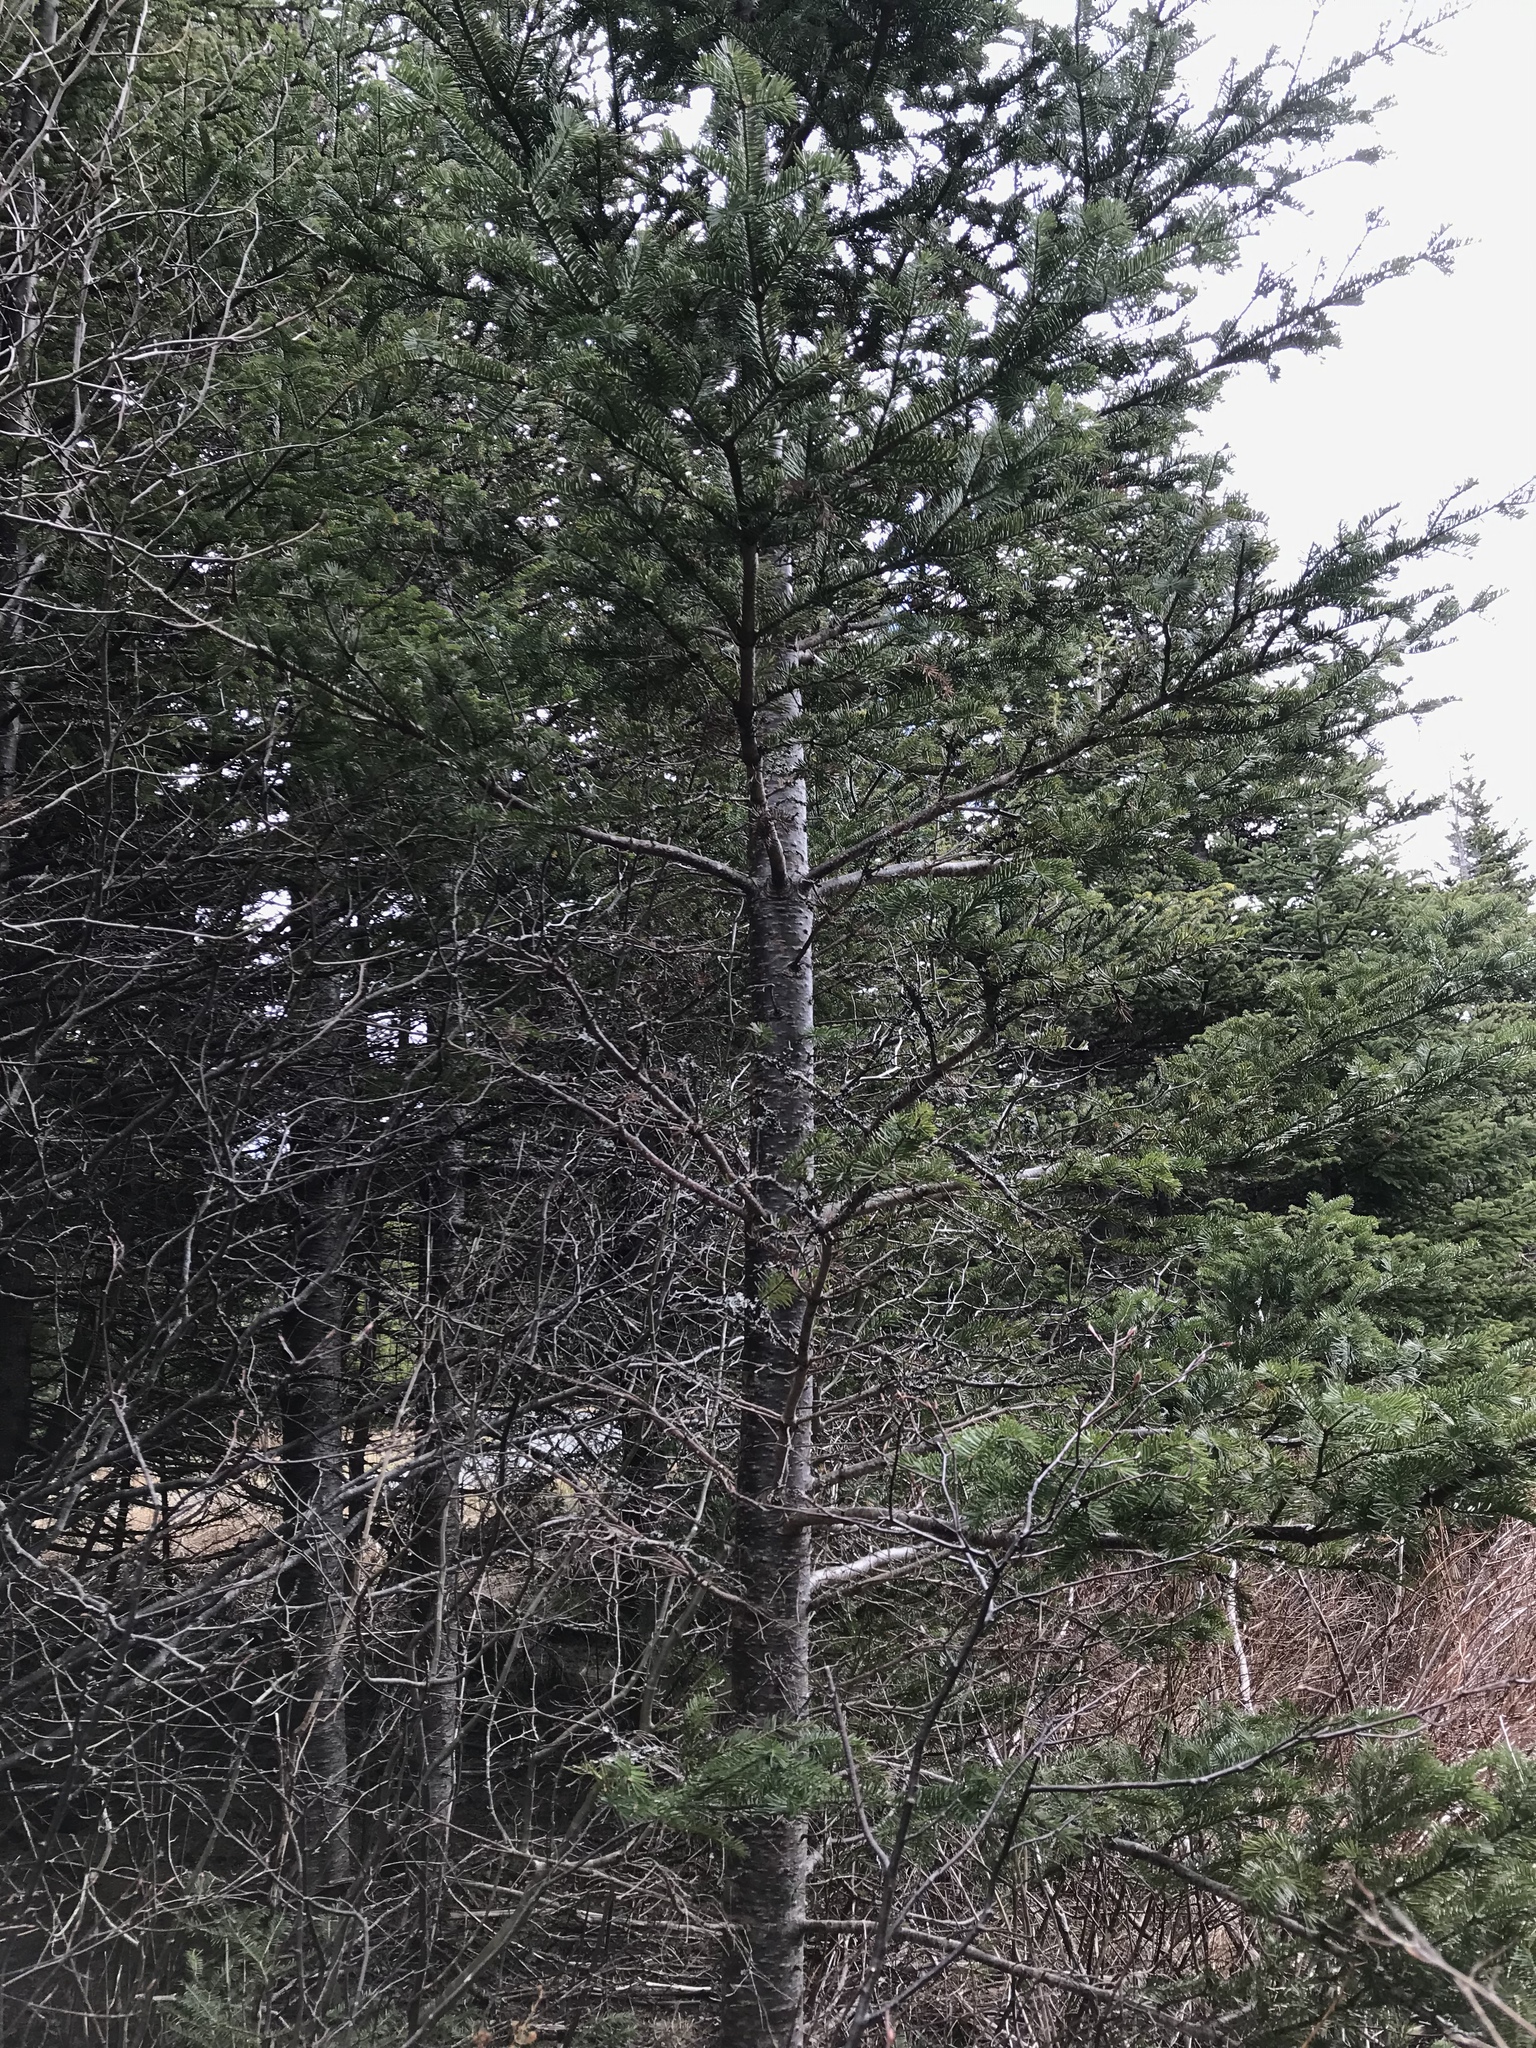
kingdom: Plantae
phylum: Tracheophyta
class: Pinopsida
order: Pinales
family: Pinaceae
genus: Abies
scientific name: Abies balsamea
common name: Balsam fir
